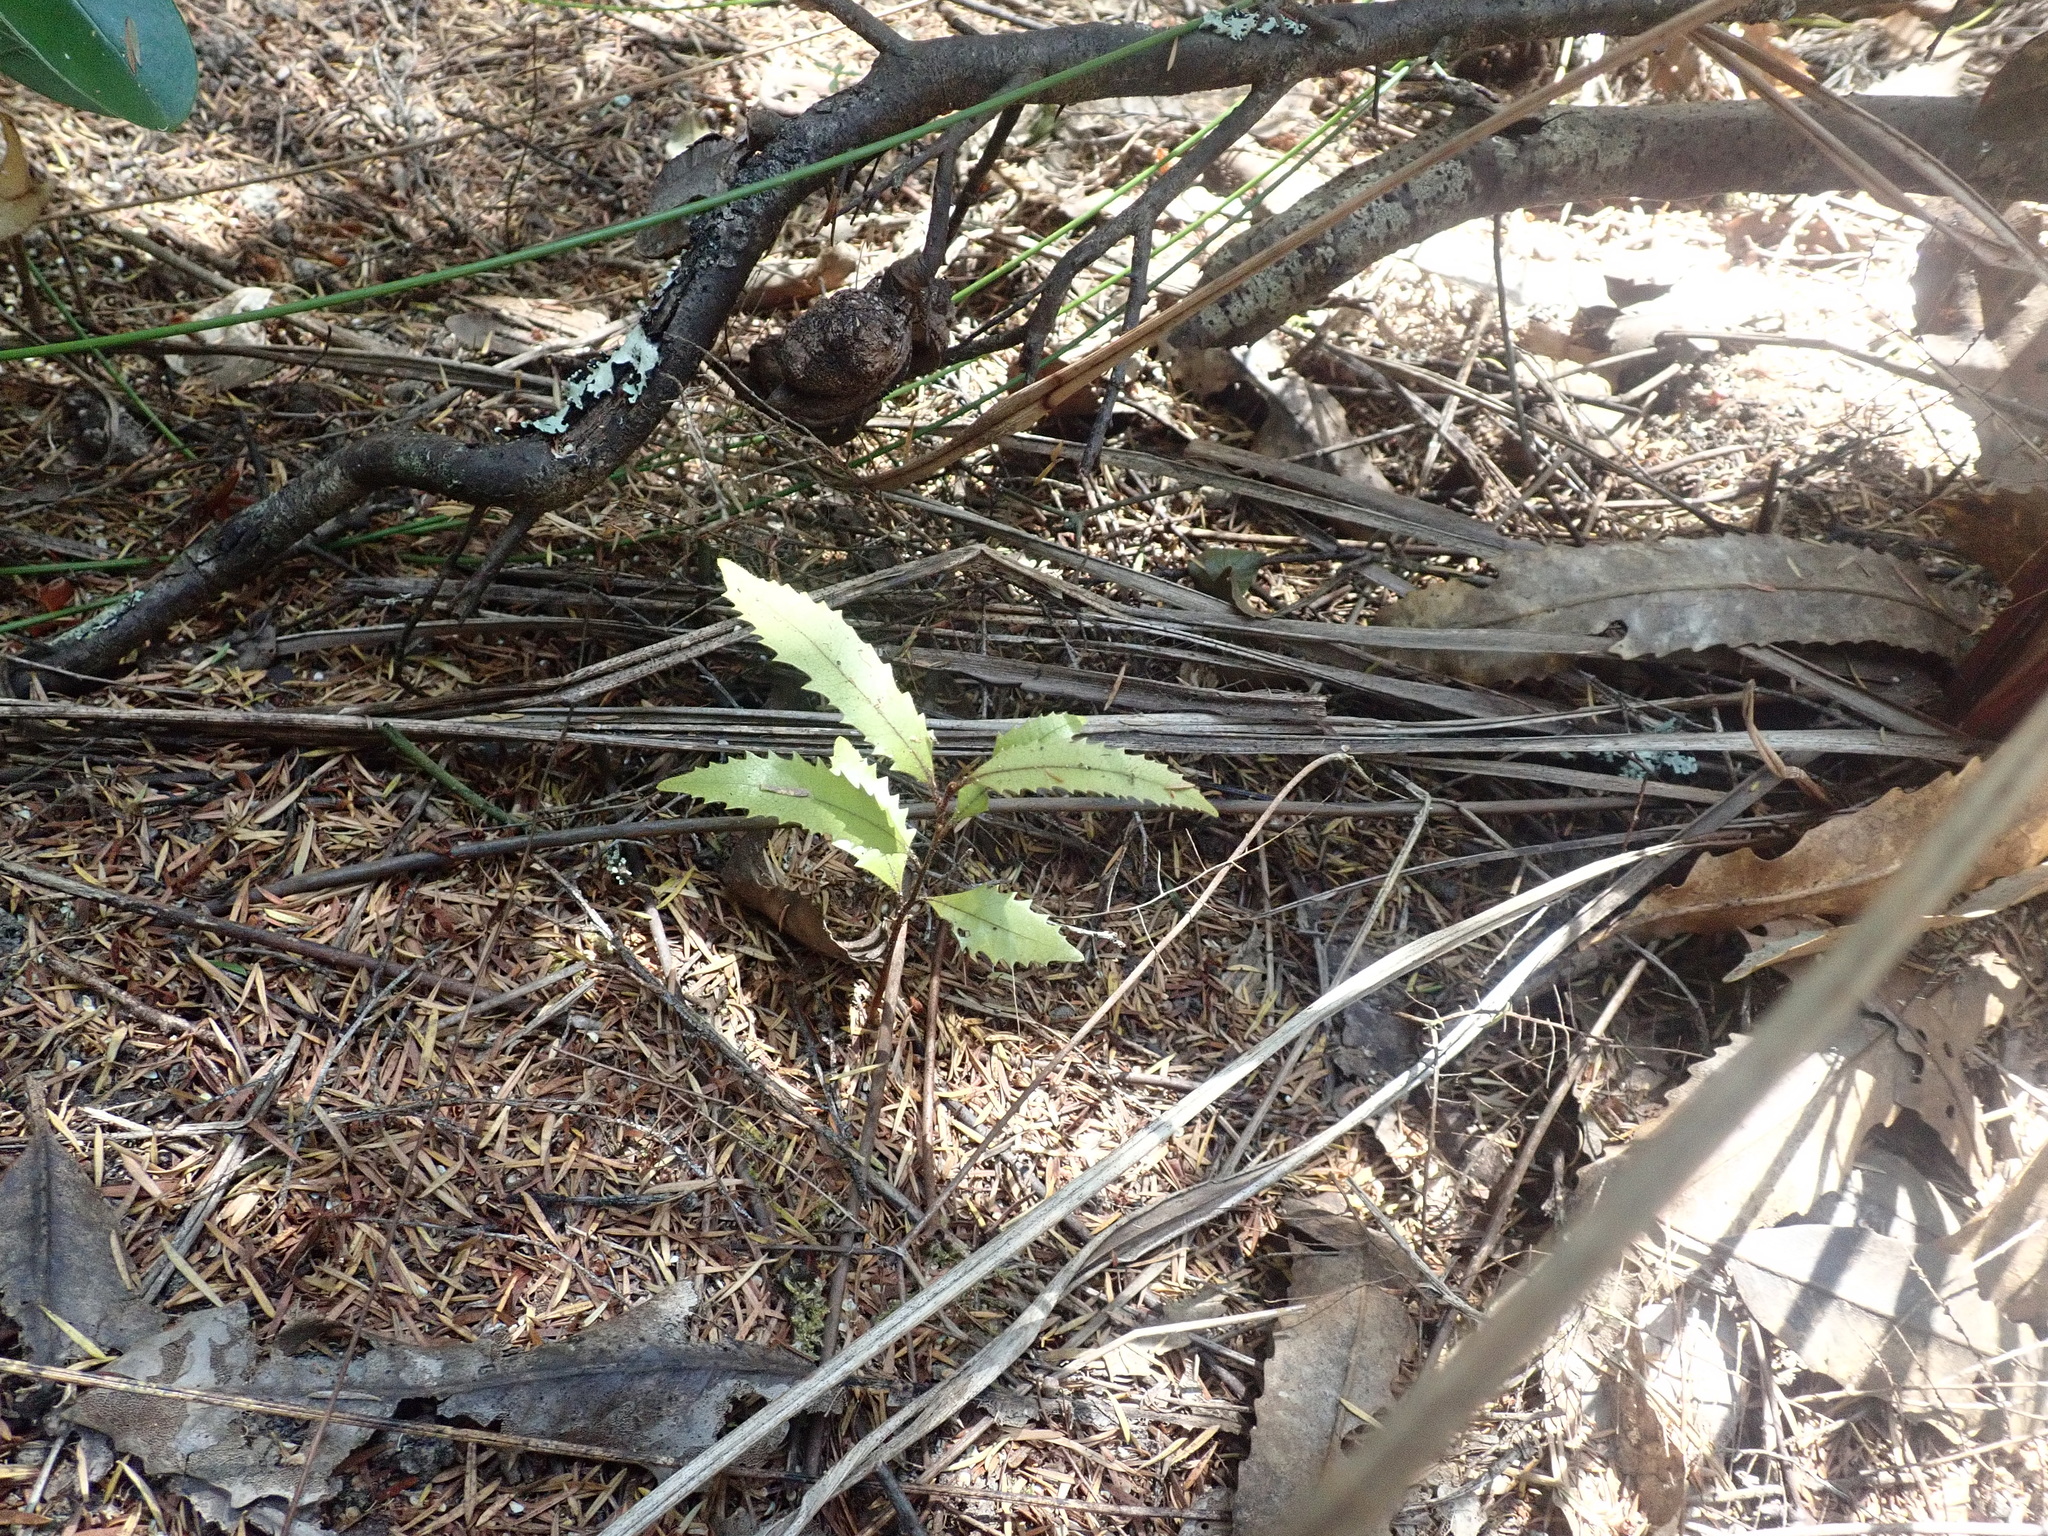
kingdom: Plantae
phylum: Tracheophyta
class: Magnoliopsida
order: Proteales
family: Proteaceae
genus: Knightia
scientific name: Knightia excelsa
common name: New zealand-honeysuckle
